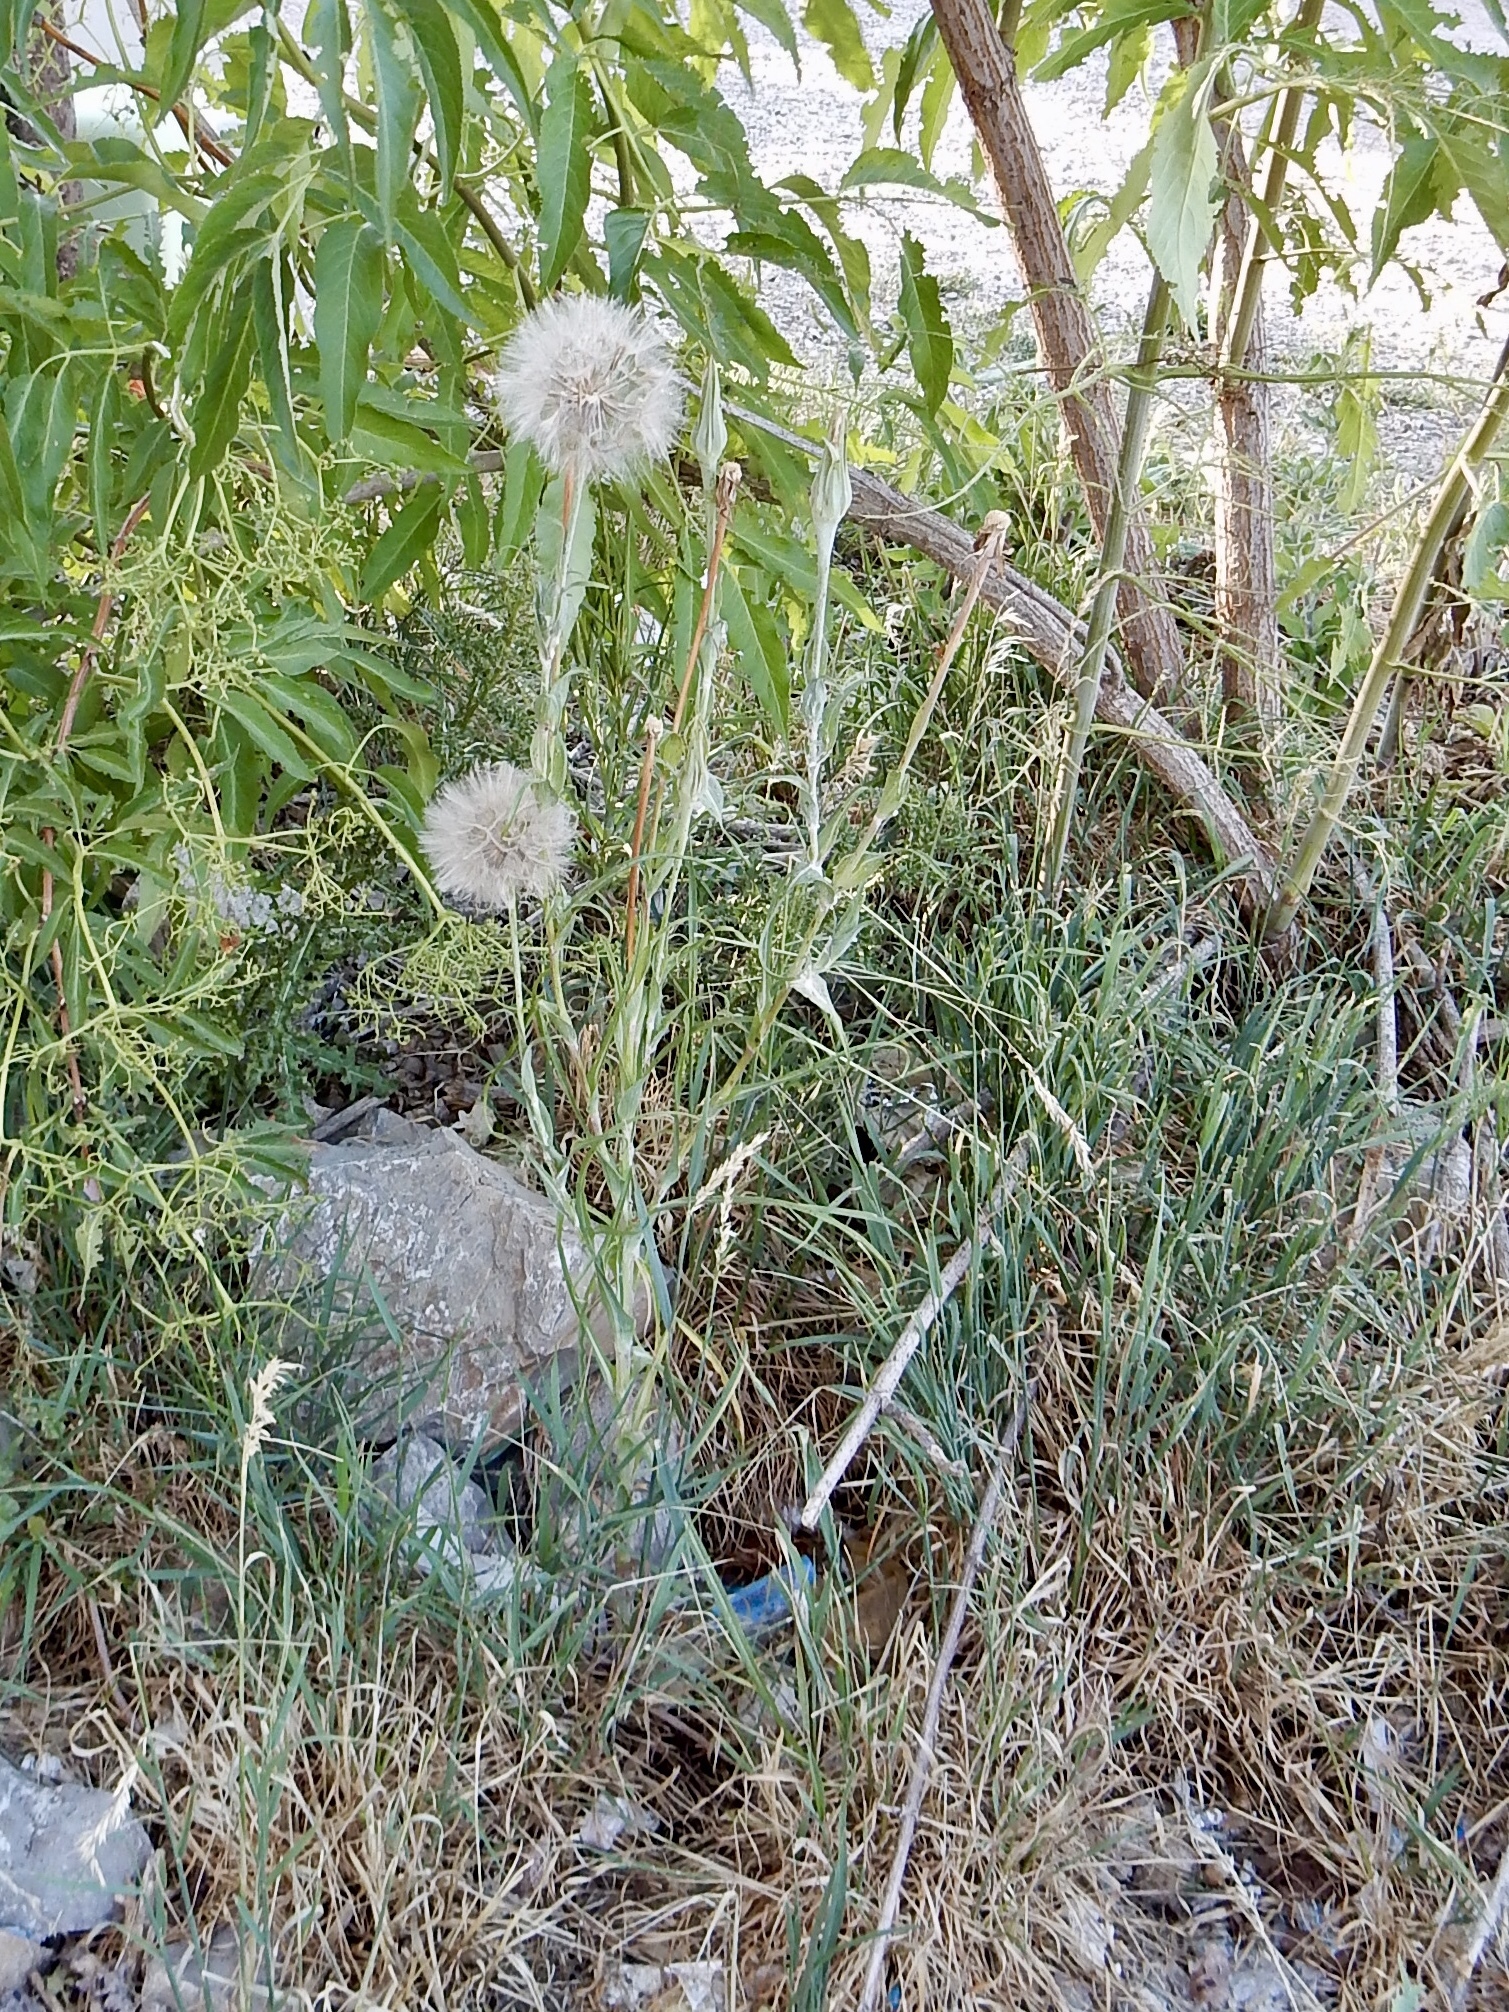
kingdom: Plantae
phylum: Tracheophyta
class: Magnoliopsida
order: Asterales
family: Asteraceae
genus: Tragopogon
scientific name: Tragopogon dubius
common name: Yellow salsify
